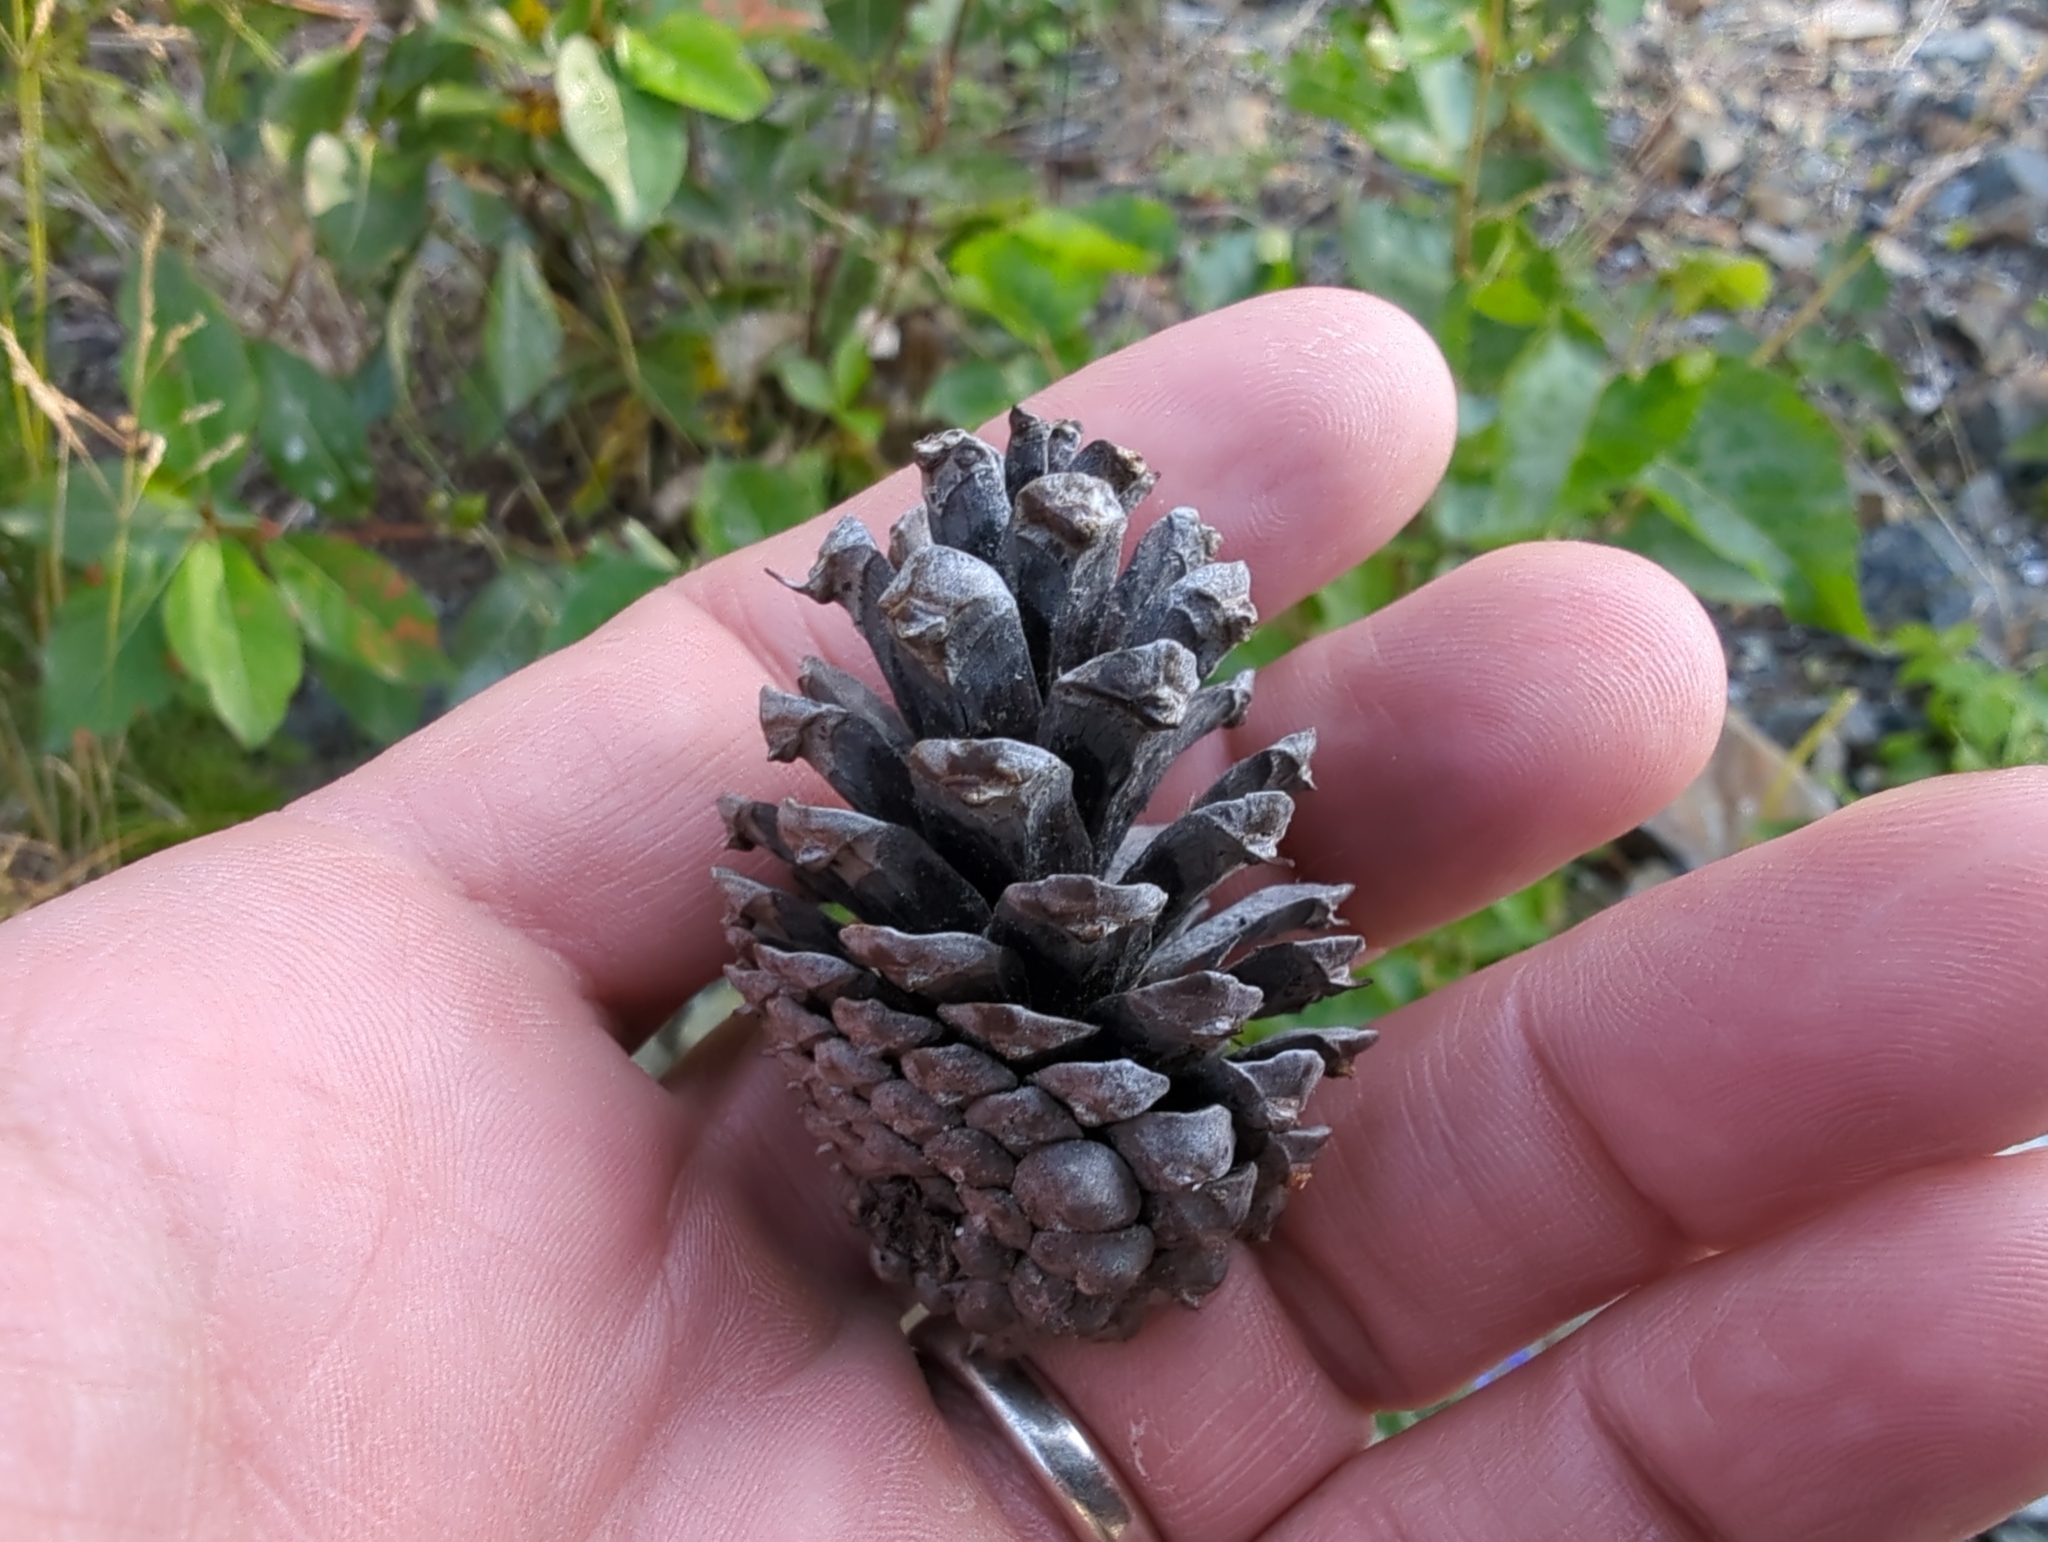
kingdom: Plantae
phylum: Tracheophyta
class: Pinopsida
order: Pinales
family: Pinaceae
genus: Pinus
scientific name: Pinus contorta
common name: Lodgepole pine
